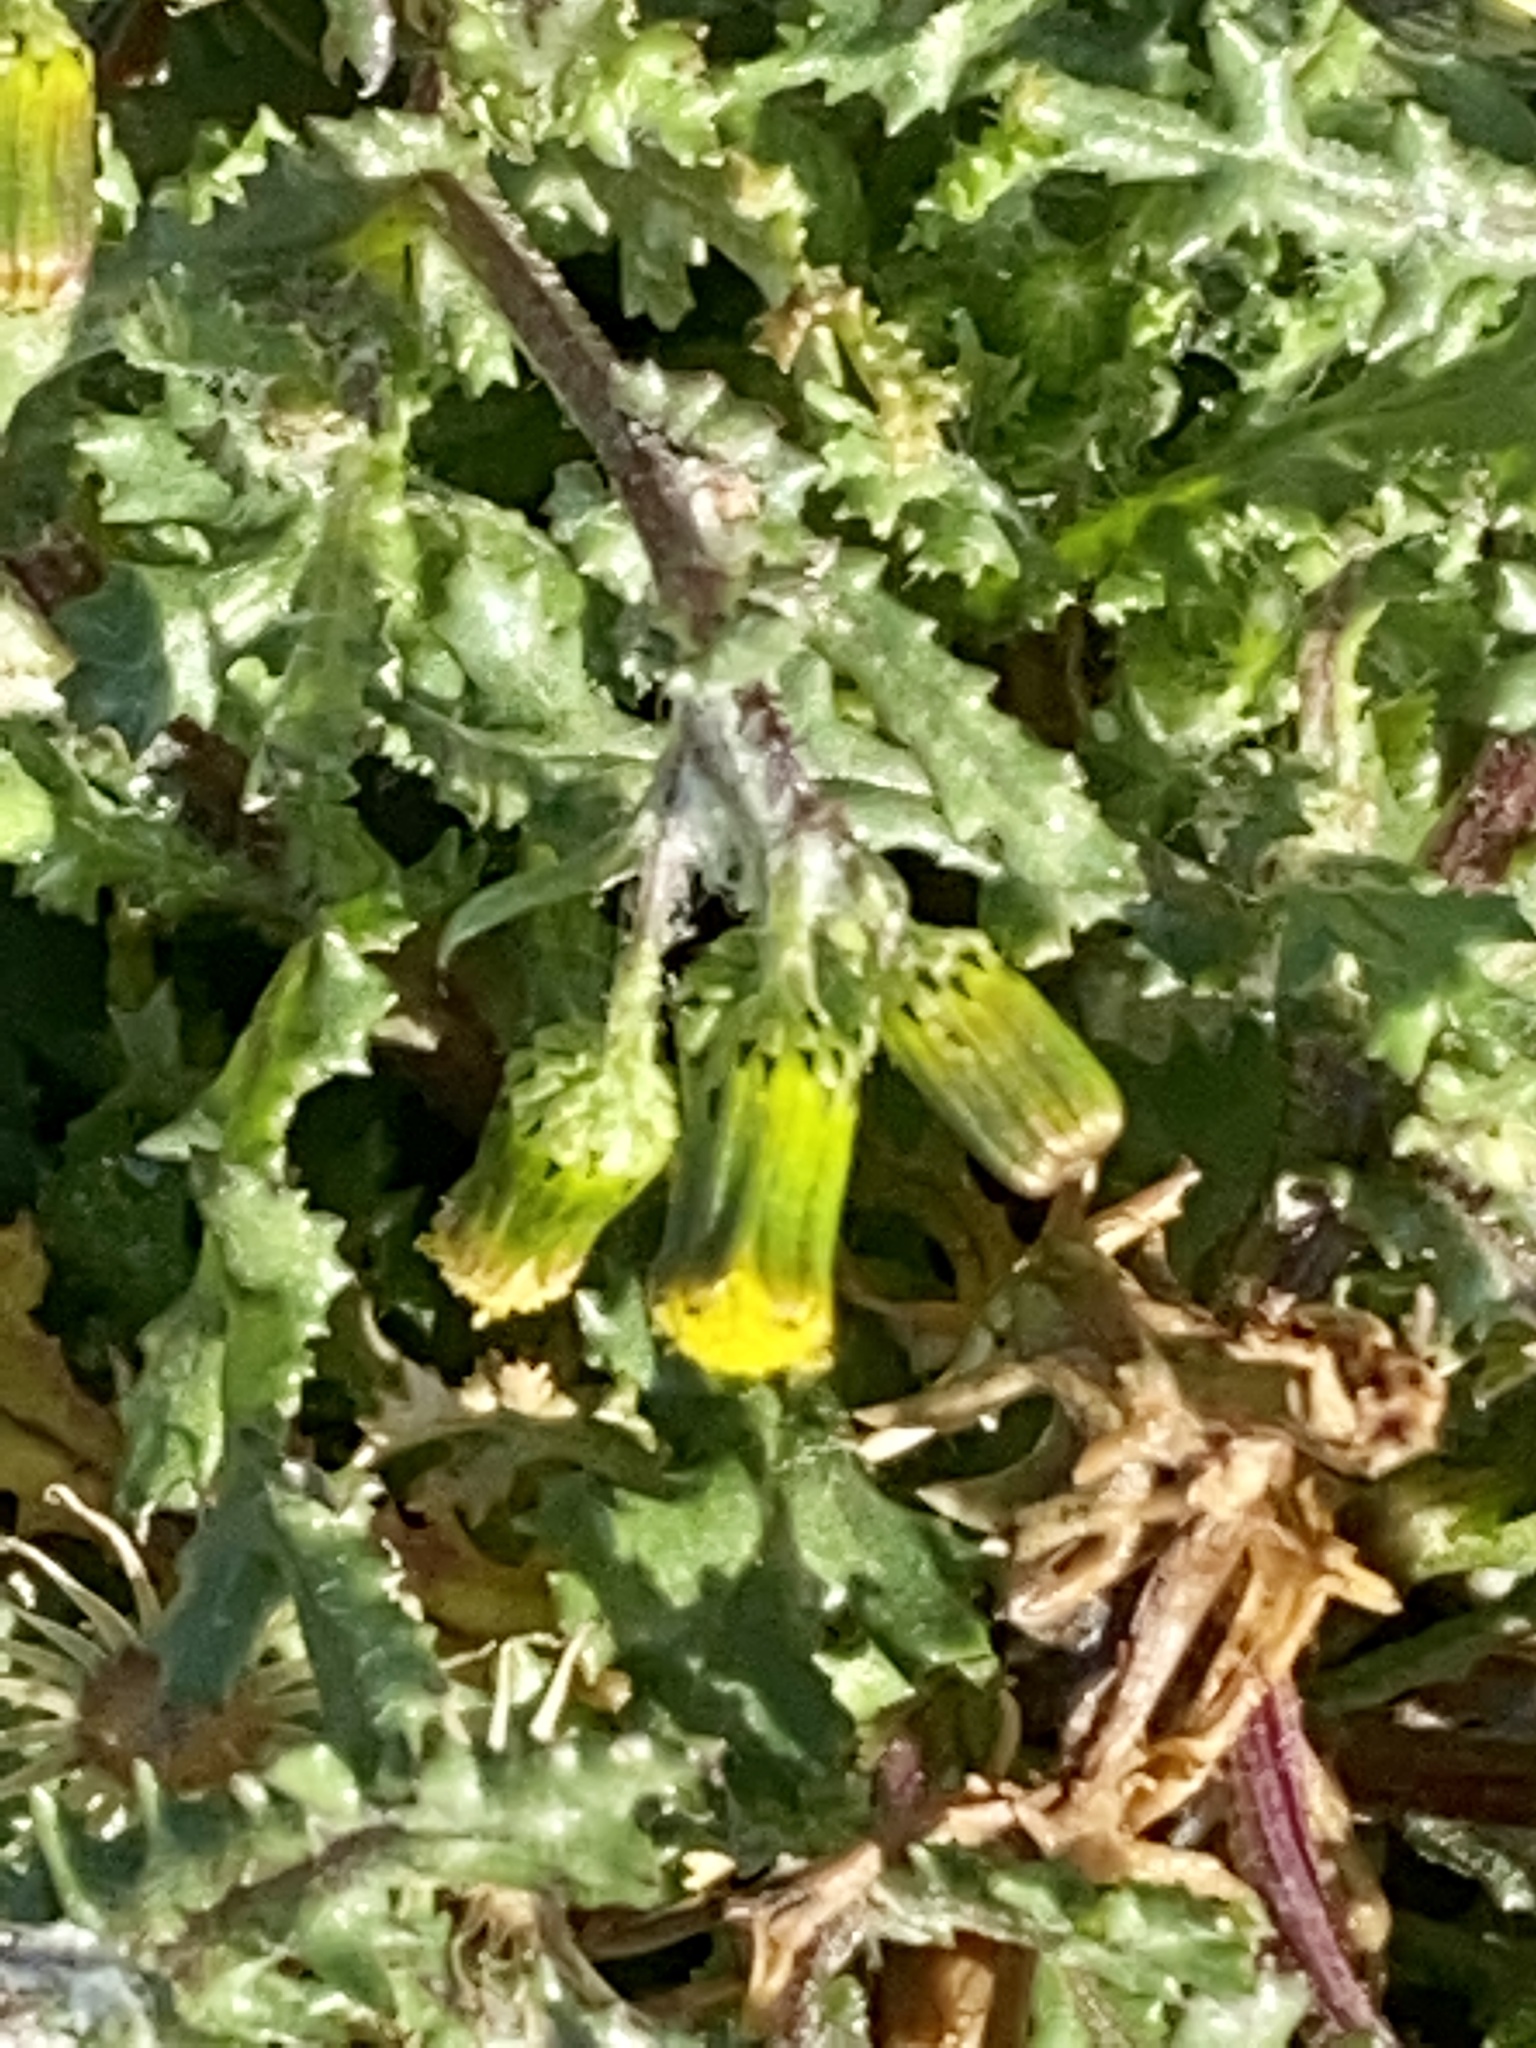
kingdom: Plantae
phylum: Tracheophyta
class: Magnoliopsida
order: Asterales
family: Asteraceae
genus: Senecio
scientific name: Senecio vulgaris
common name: Old-man-in-the-spring
